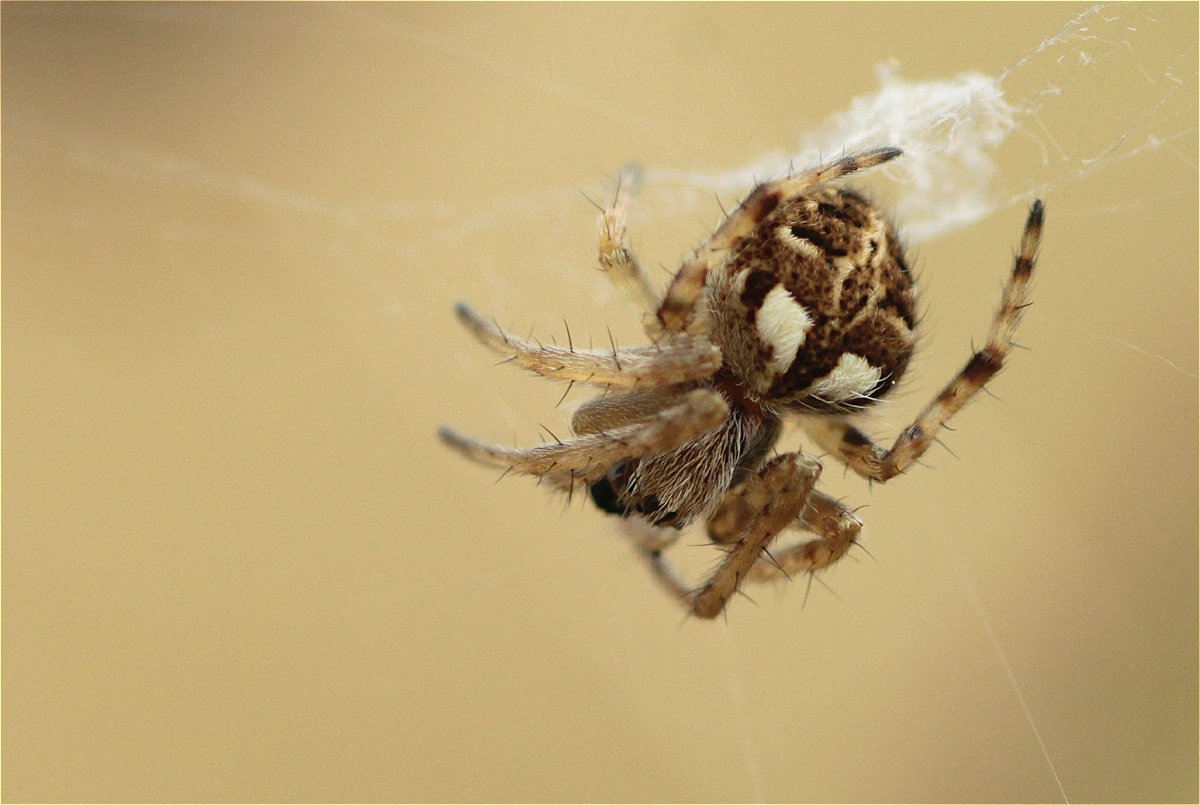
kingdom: Animalia
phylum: Arthropoda
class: Arachnida
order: Araneae
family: Araneidae
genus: Agalenatea
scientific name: Agalenatea redii
